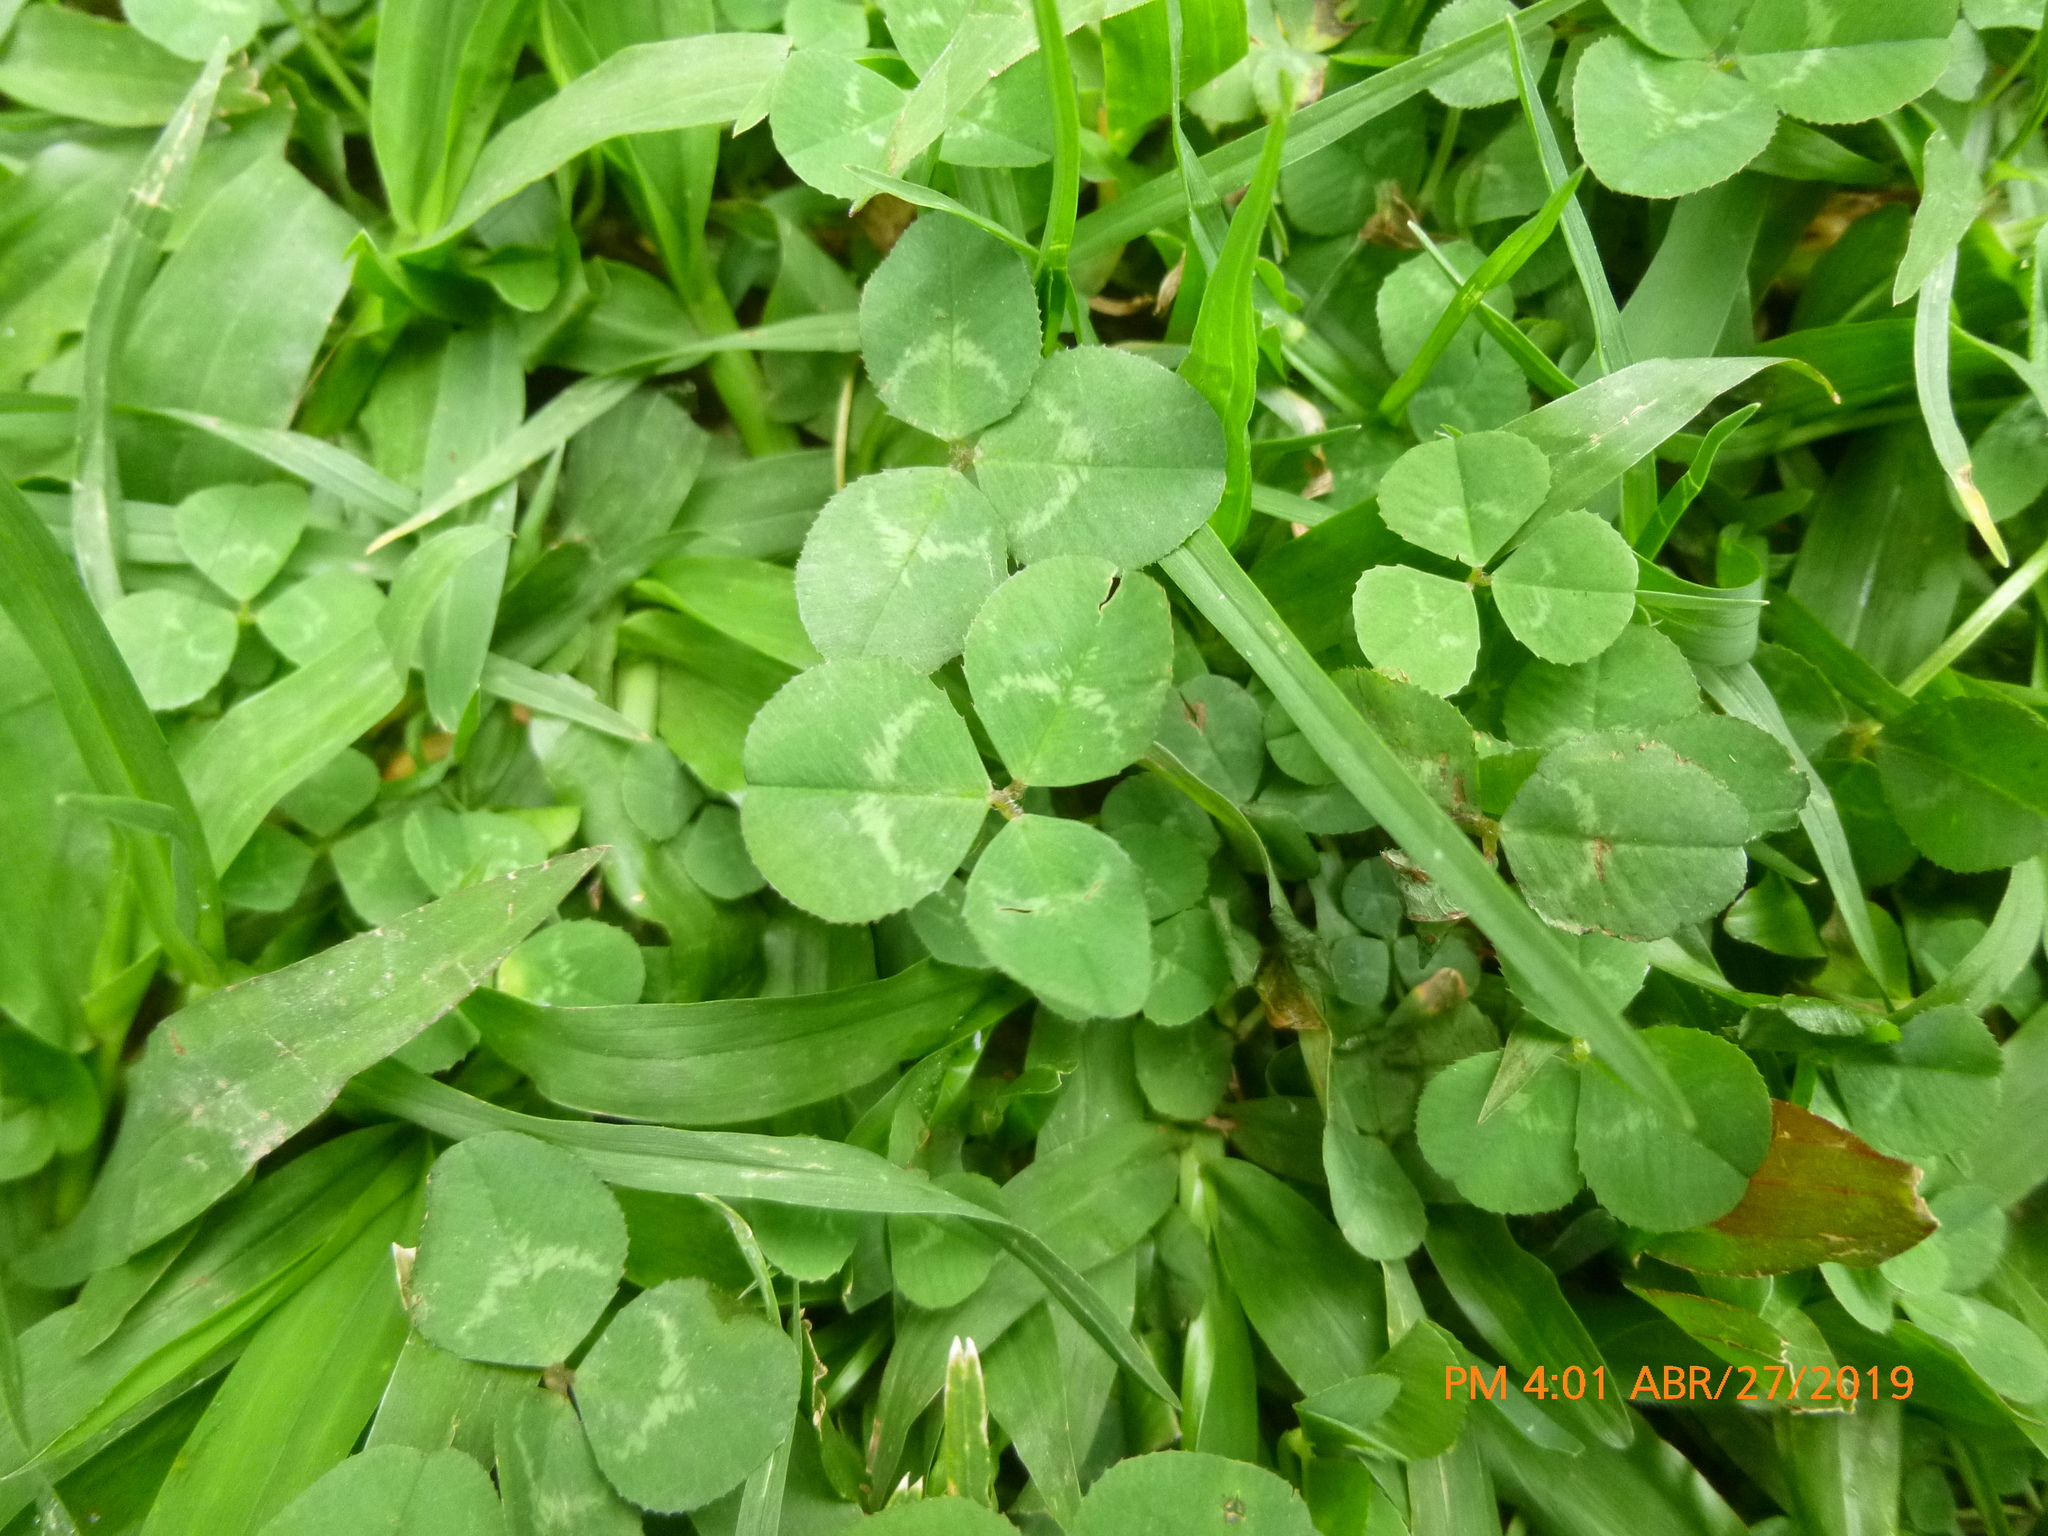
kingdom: Plantae
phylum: Tracheophyta
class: Magnoliopsida
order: Fabales
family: Fabaceae
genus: Trifolium
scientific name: Trifolium repens
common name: White clover
